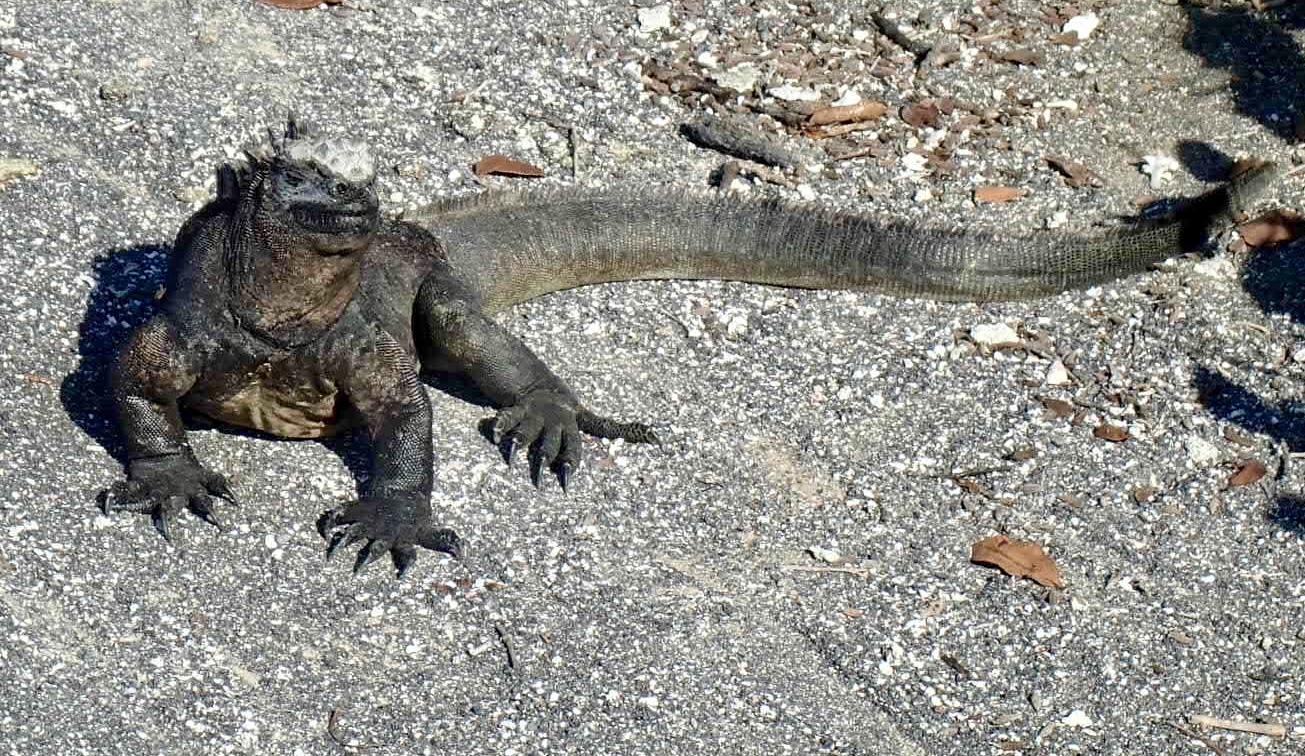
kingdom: Animalia
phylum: Chordata
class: Squamata
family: Iguanidae
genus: Amblyrhynchus
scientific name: Amblyrhynchus cristatus
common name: Marine iguana
